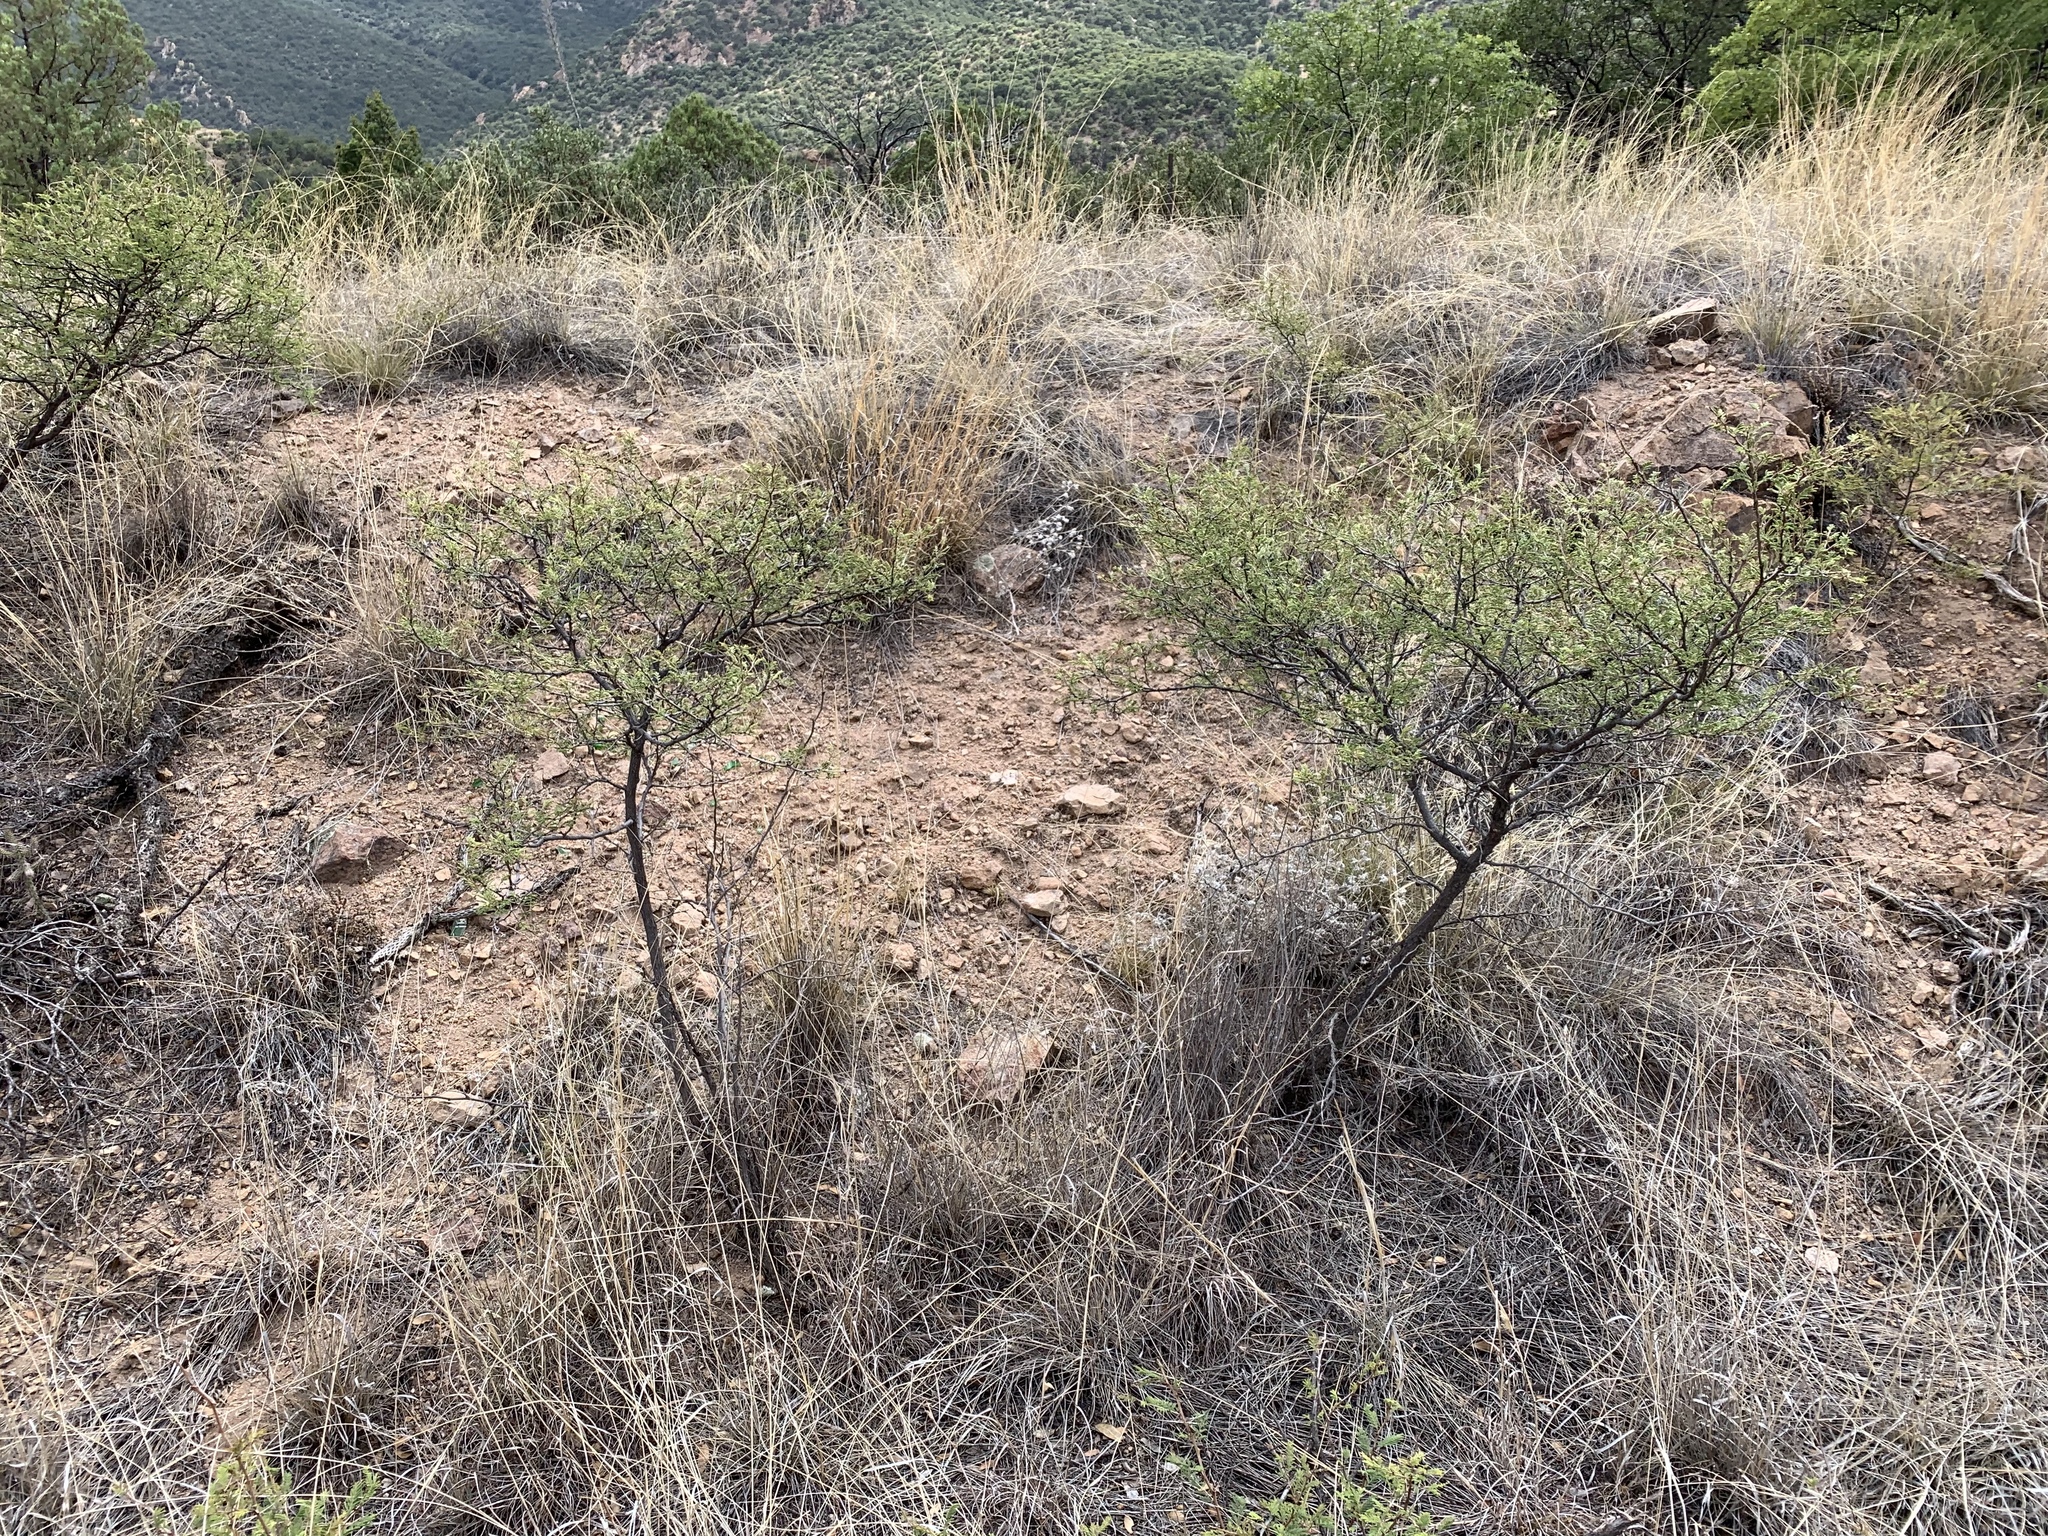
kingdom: Plantae
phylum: Tracheophyta
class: Magnoliopsida
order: Fabales
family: Fabaceae
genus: Mimosa
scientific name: Mimosa biuncifera
